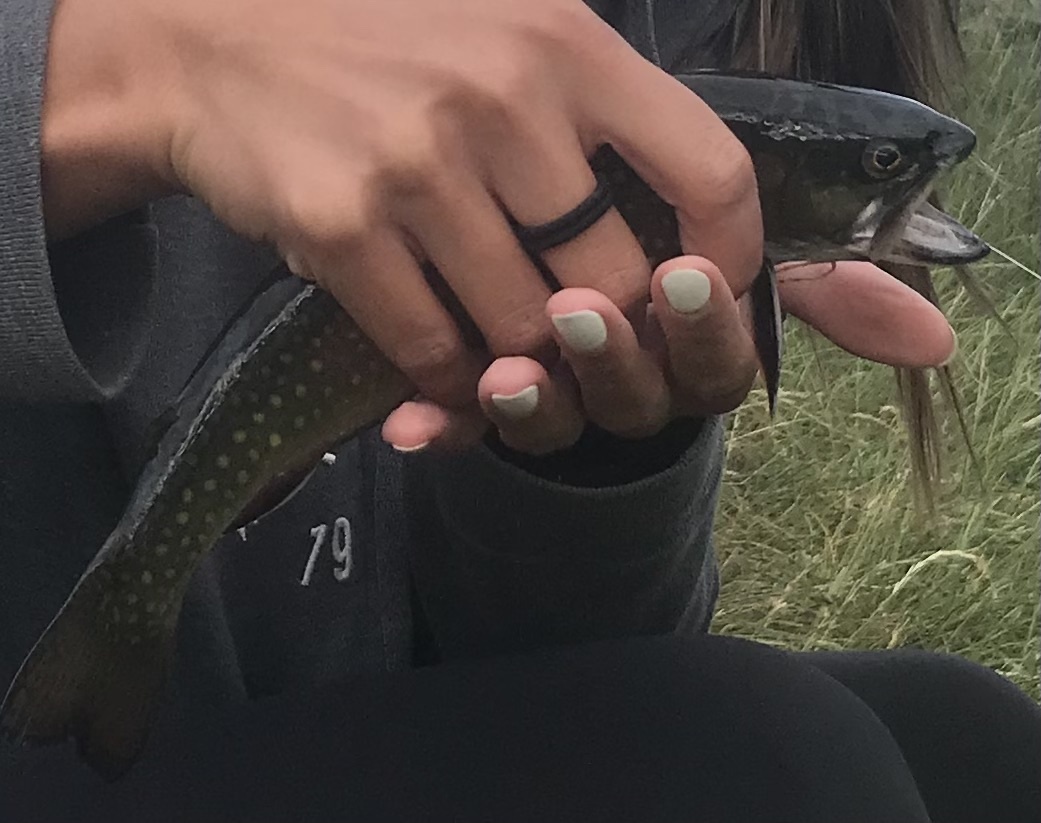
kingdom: Animalia
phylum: Chordata
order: Salmoniformes
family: Salmonidae
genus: Salvelinus
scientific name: Salvelinus fontinalis
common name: Brook trout
